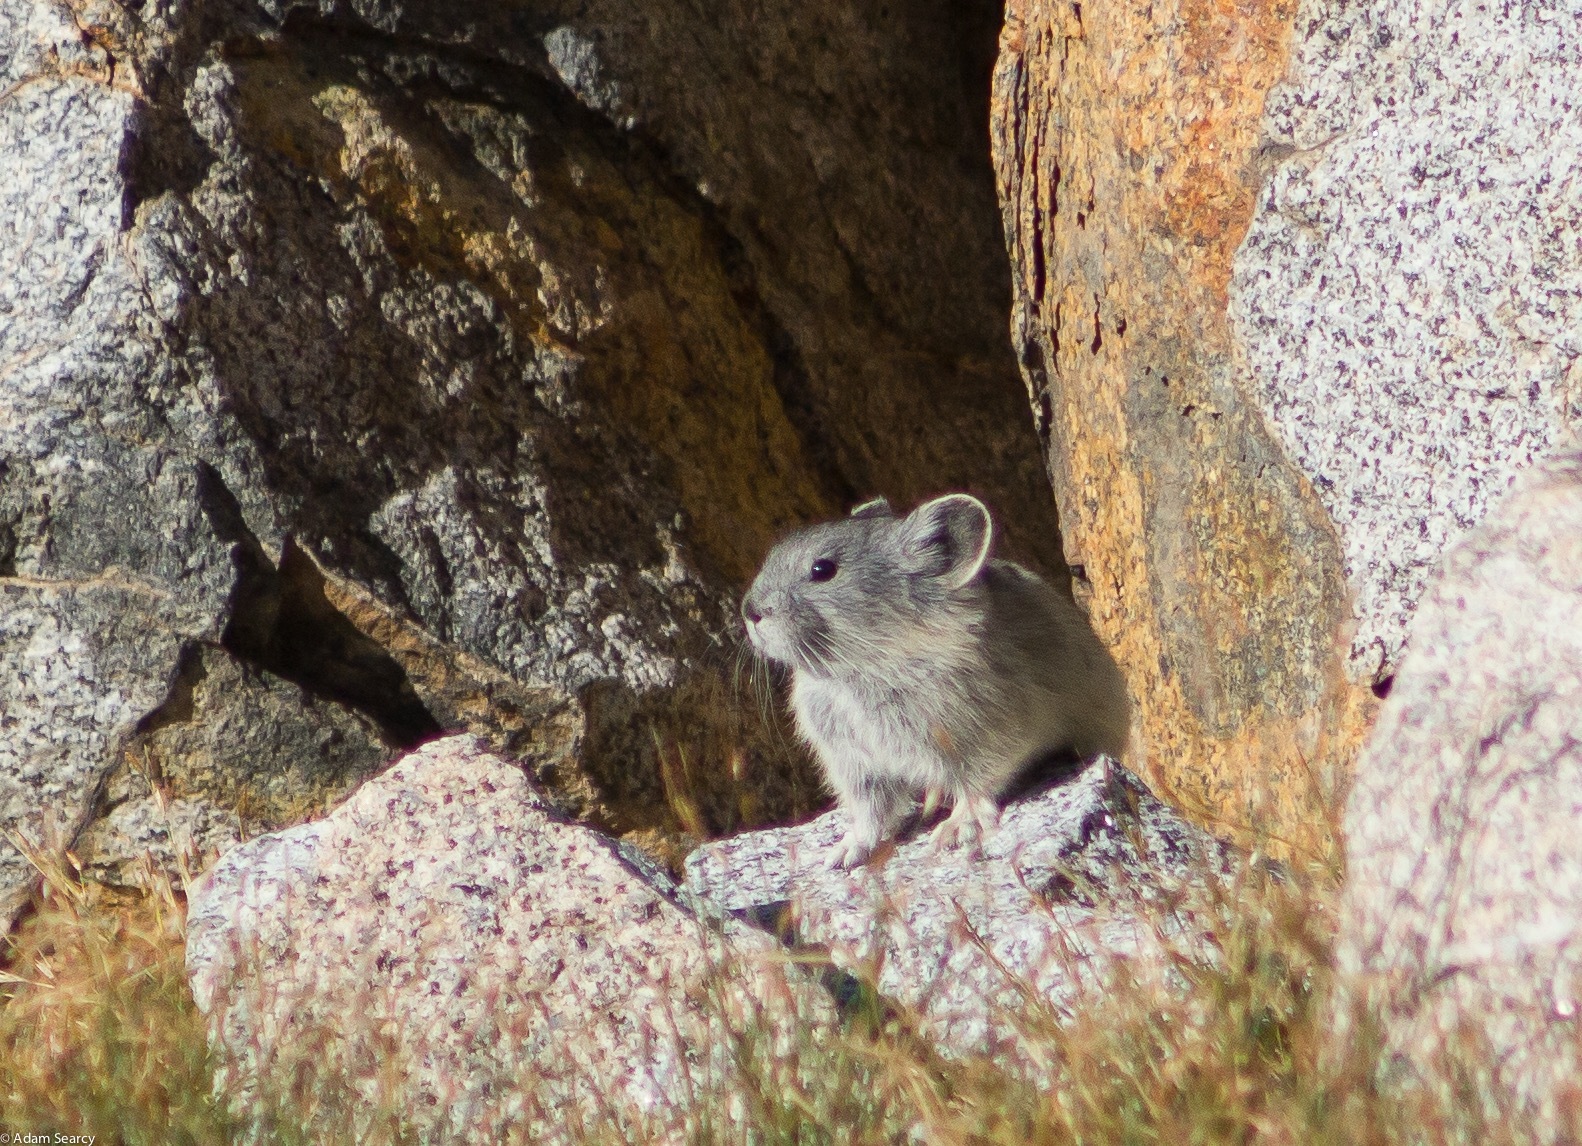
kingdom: Animalia
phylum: Chordata
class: Mammalia
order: Lagomorpha
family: Ochotonidae
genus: Ochotona
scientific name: Ochotona princeps
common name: American pika
